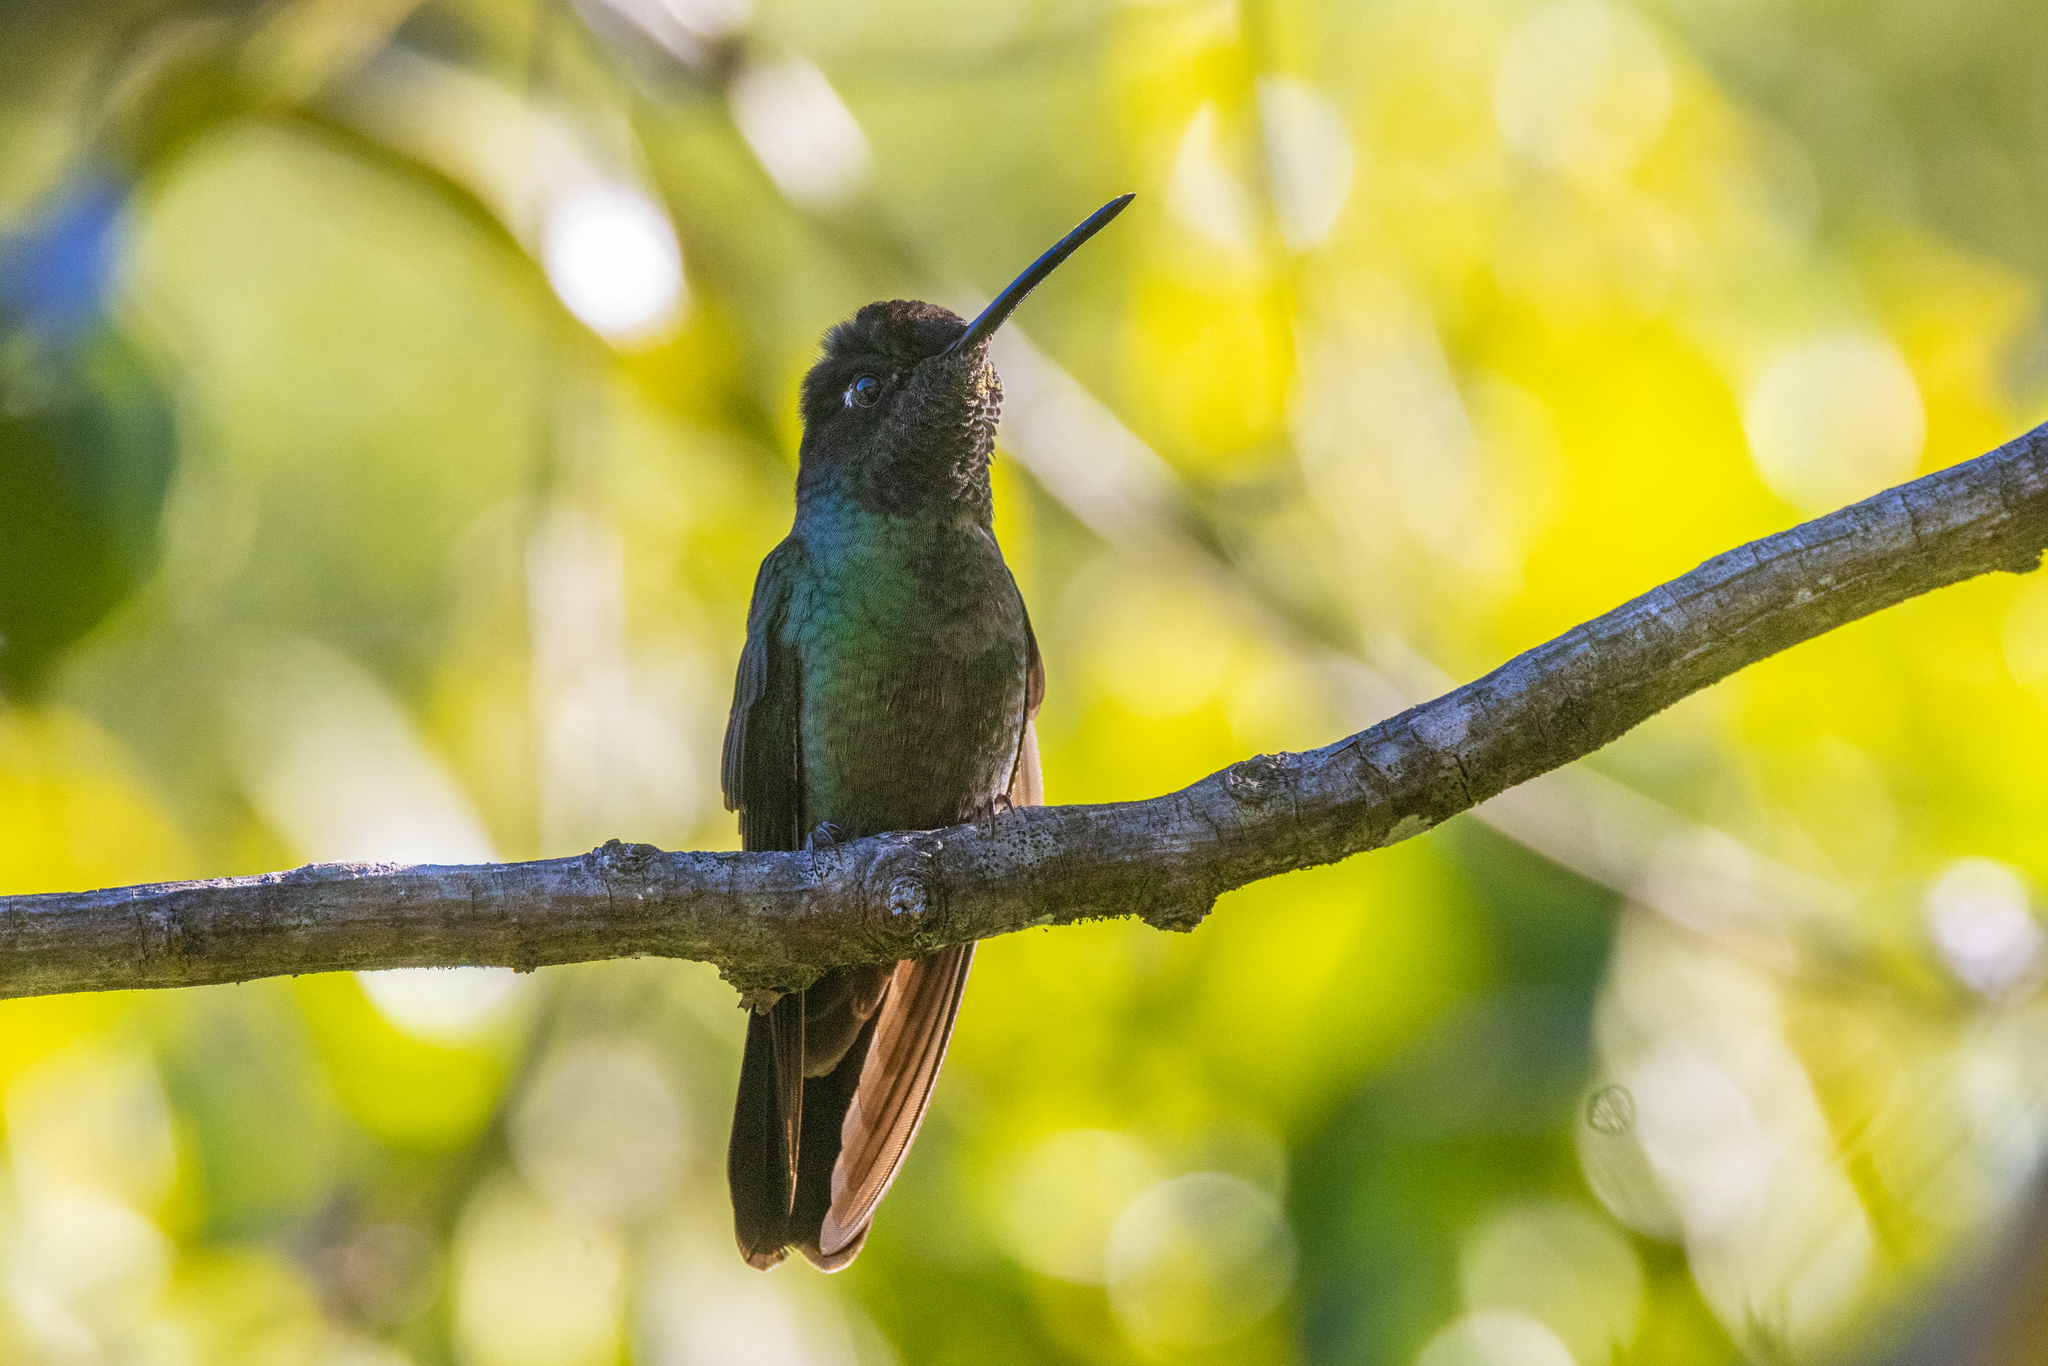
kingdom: Animalia
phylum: Chordata
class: Aves
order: Apodiformes
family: Trochilidae
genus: Eugenes
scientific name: Eugenes spectabilis
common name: Talamanca hummingbird
